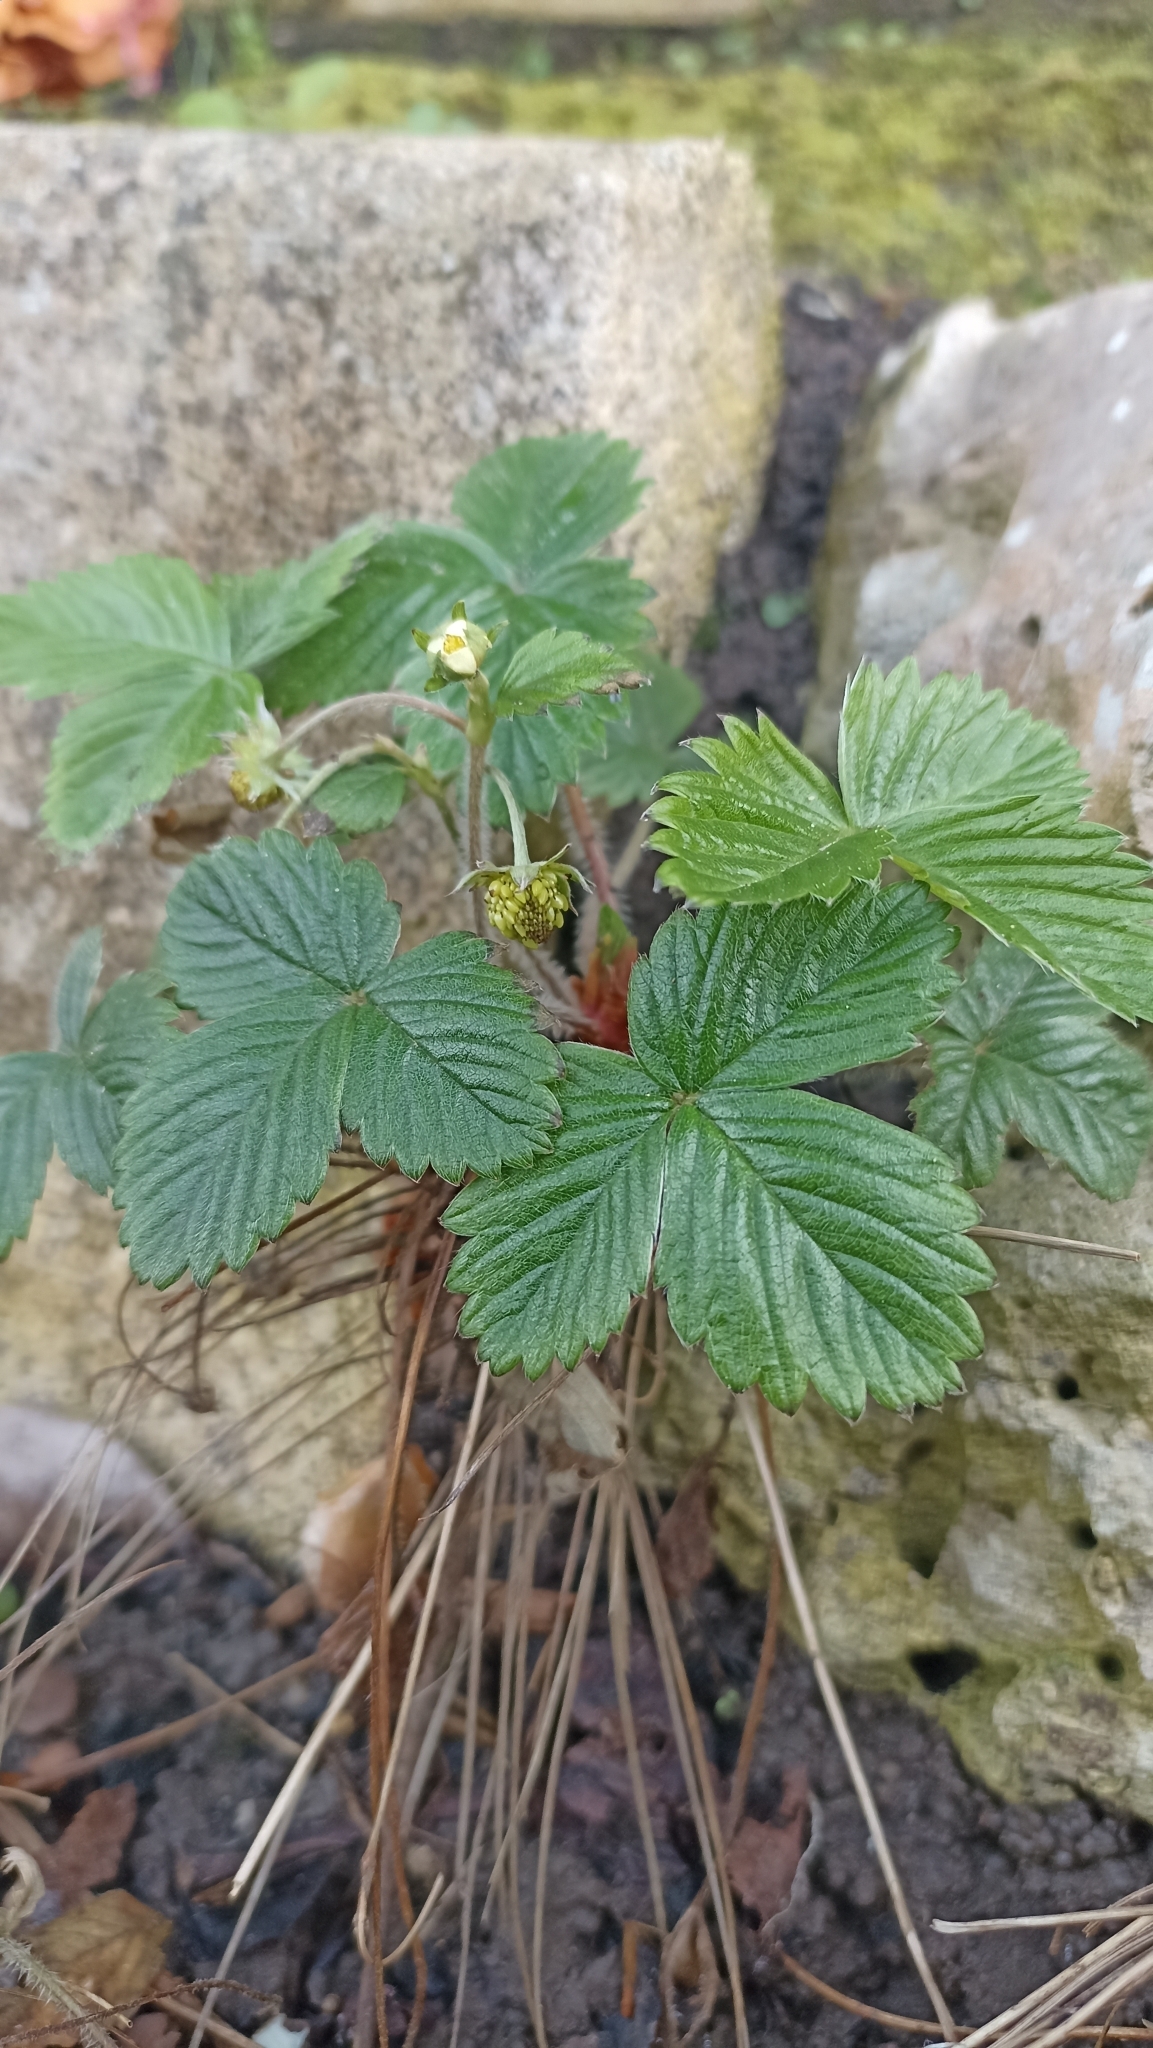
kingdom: Plantae
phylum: Tracheophyta
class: Magnoliopsida
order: Rosales
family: Rosaceae
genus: Fragaria
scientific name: Fragaria vesca
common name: Wild strawberry
